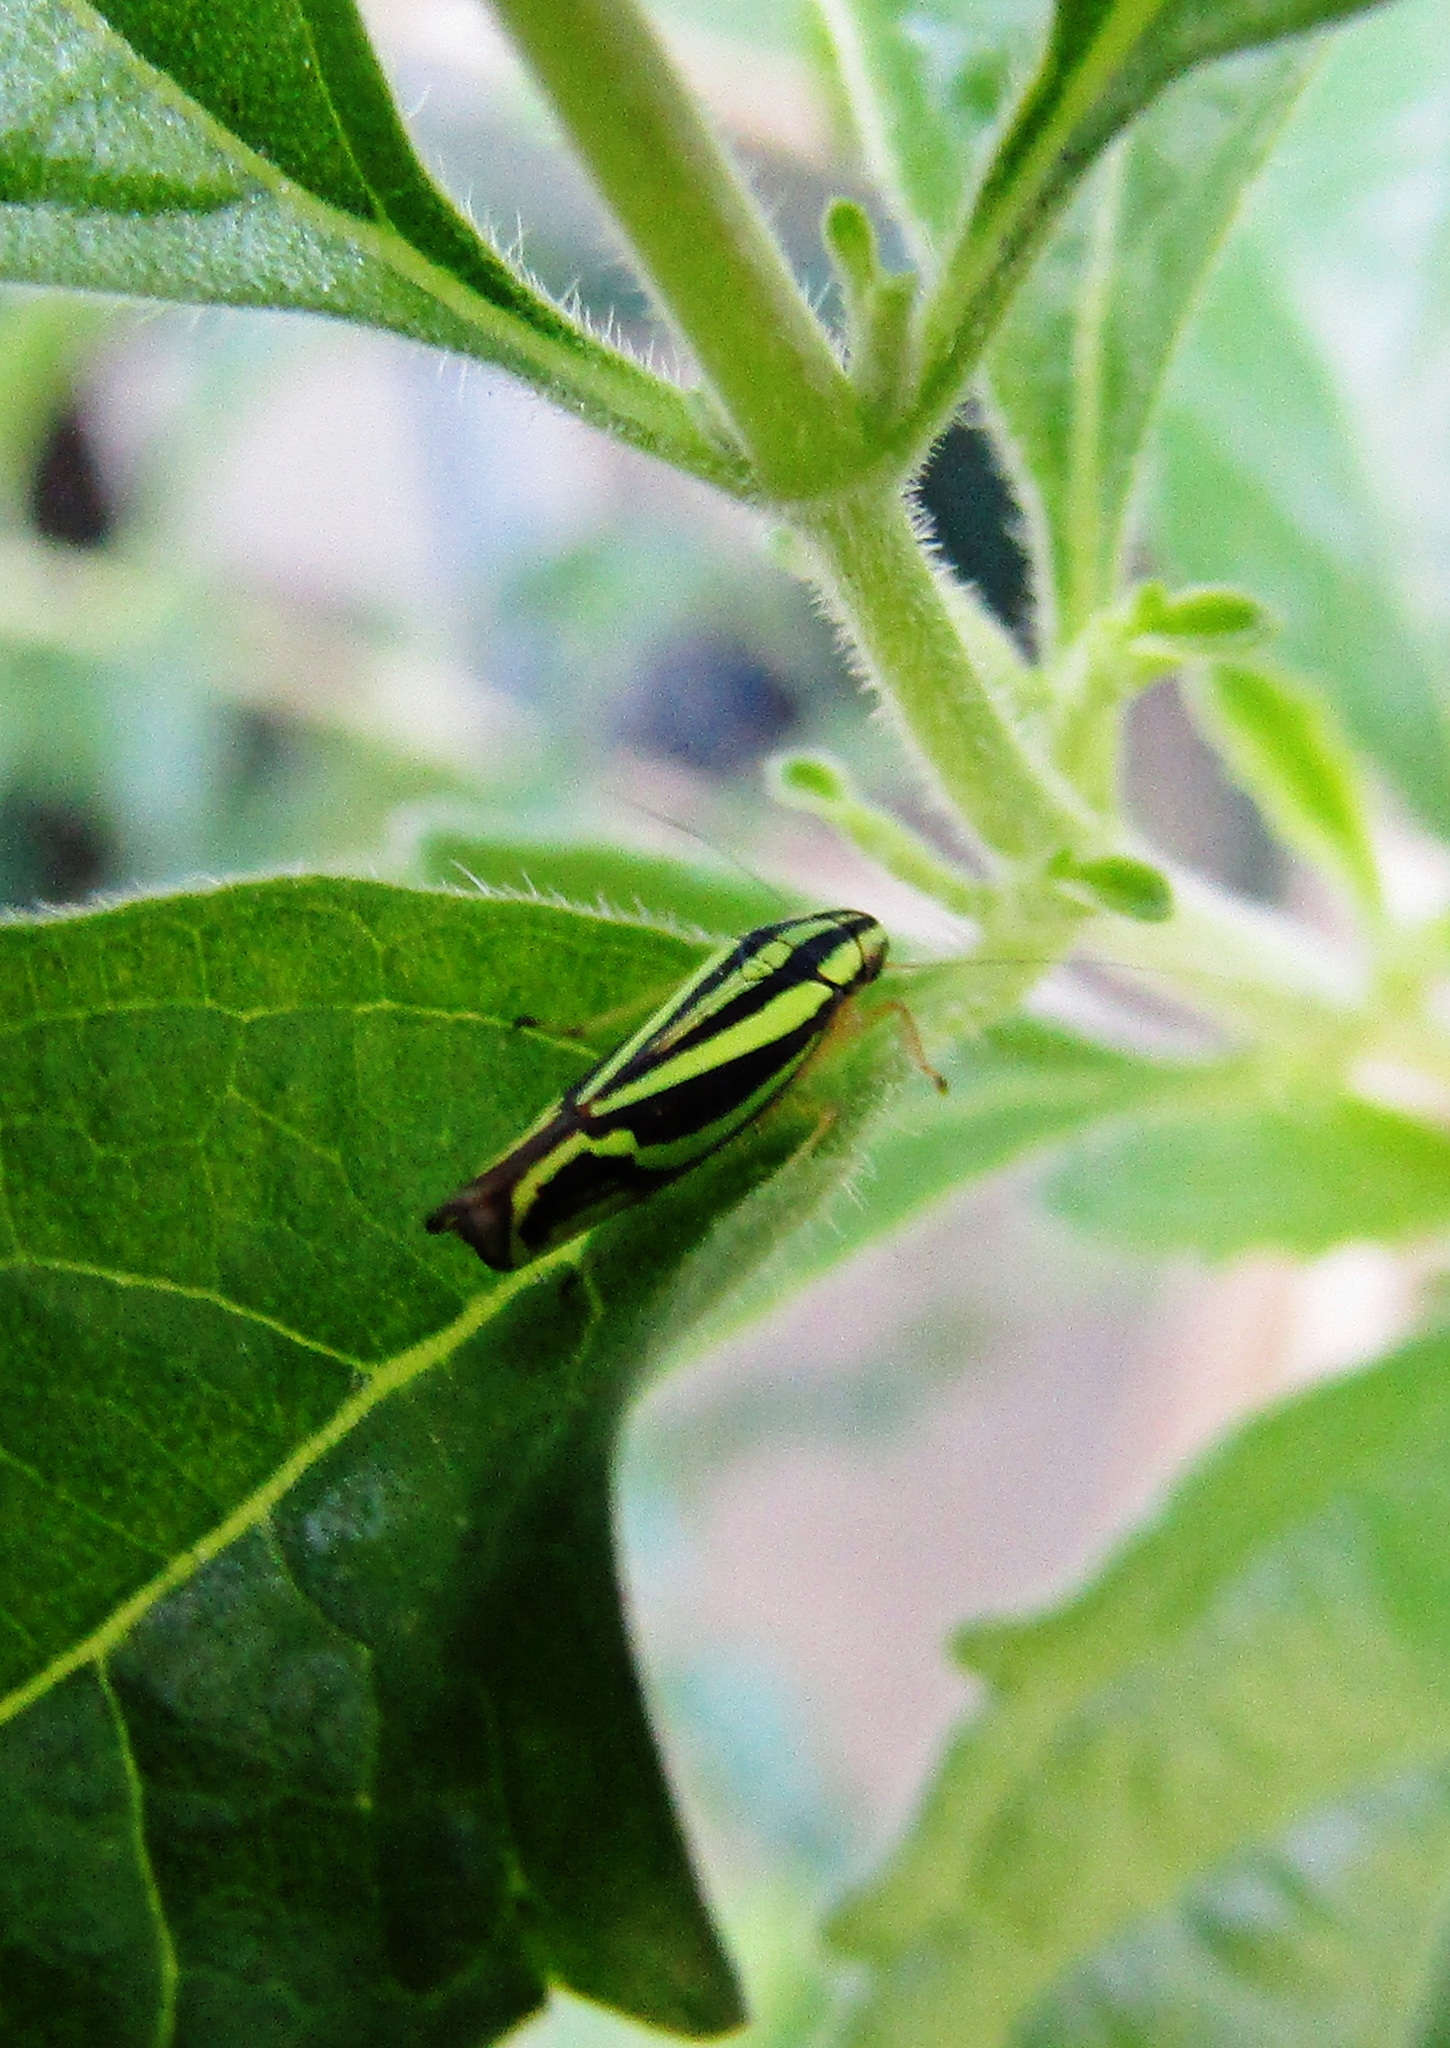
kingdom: Animalia
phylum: Arthropoda
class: Insecta
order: Hemiptera
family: Cicadellidae
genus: Sibovia
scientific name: Sibovia sagata
